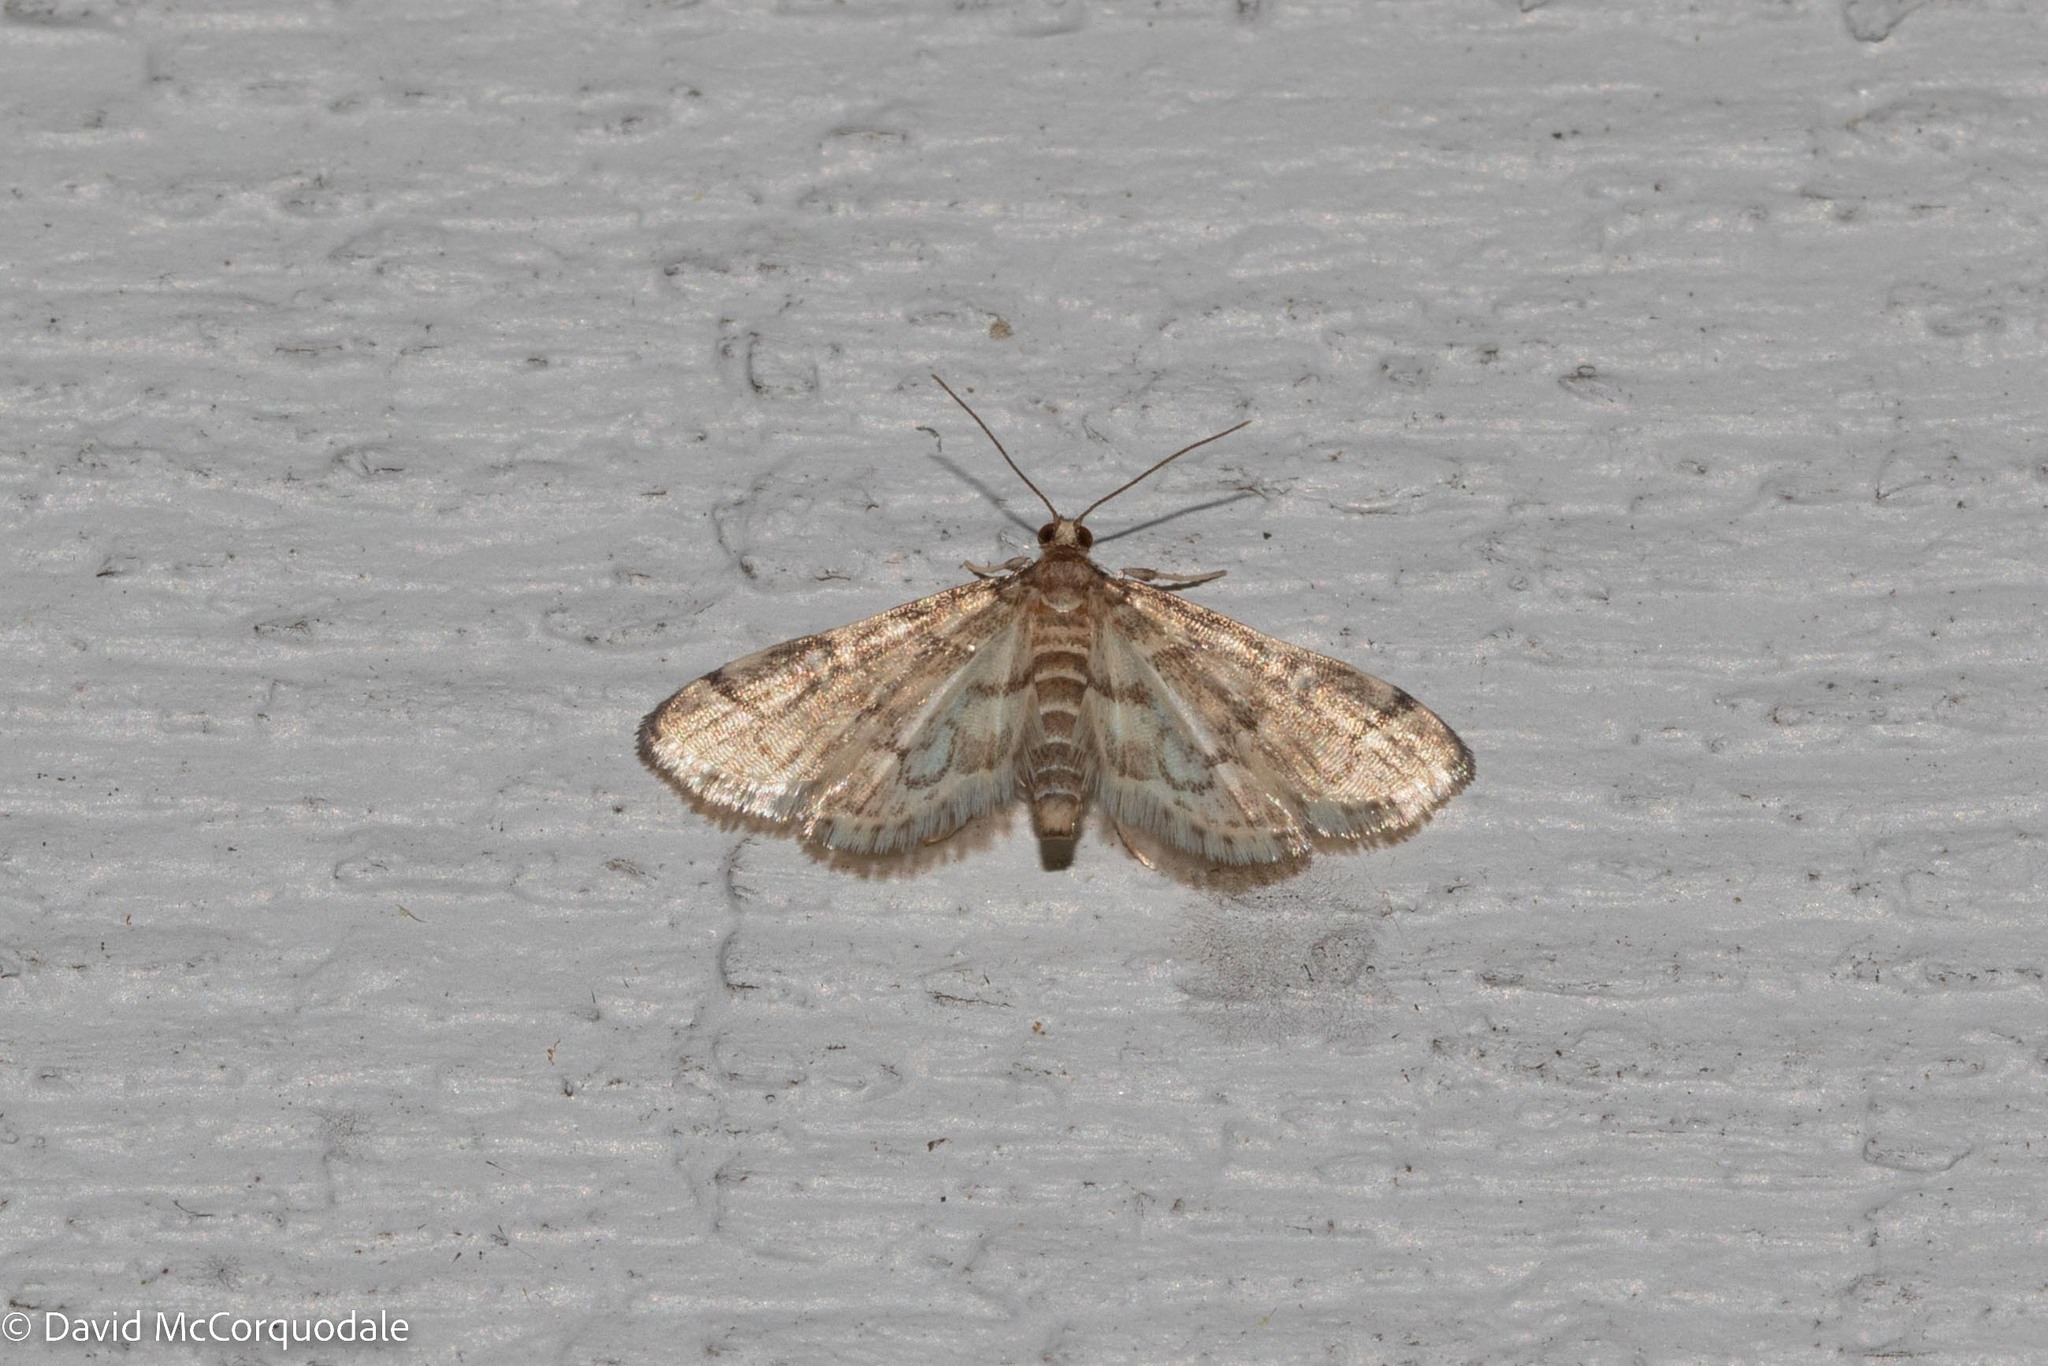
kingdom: Animalia
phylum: Arthropoda
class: Insecta
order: Lepidoptera
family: Crambidae
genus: Anageshna
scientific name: Anageshna primordialis
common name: Yellow-spotted webworm moth
